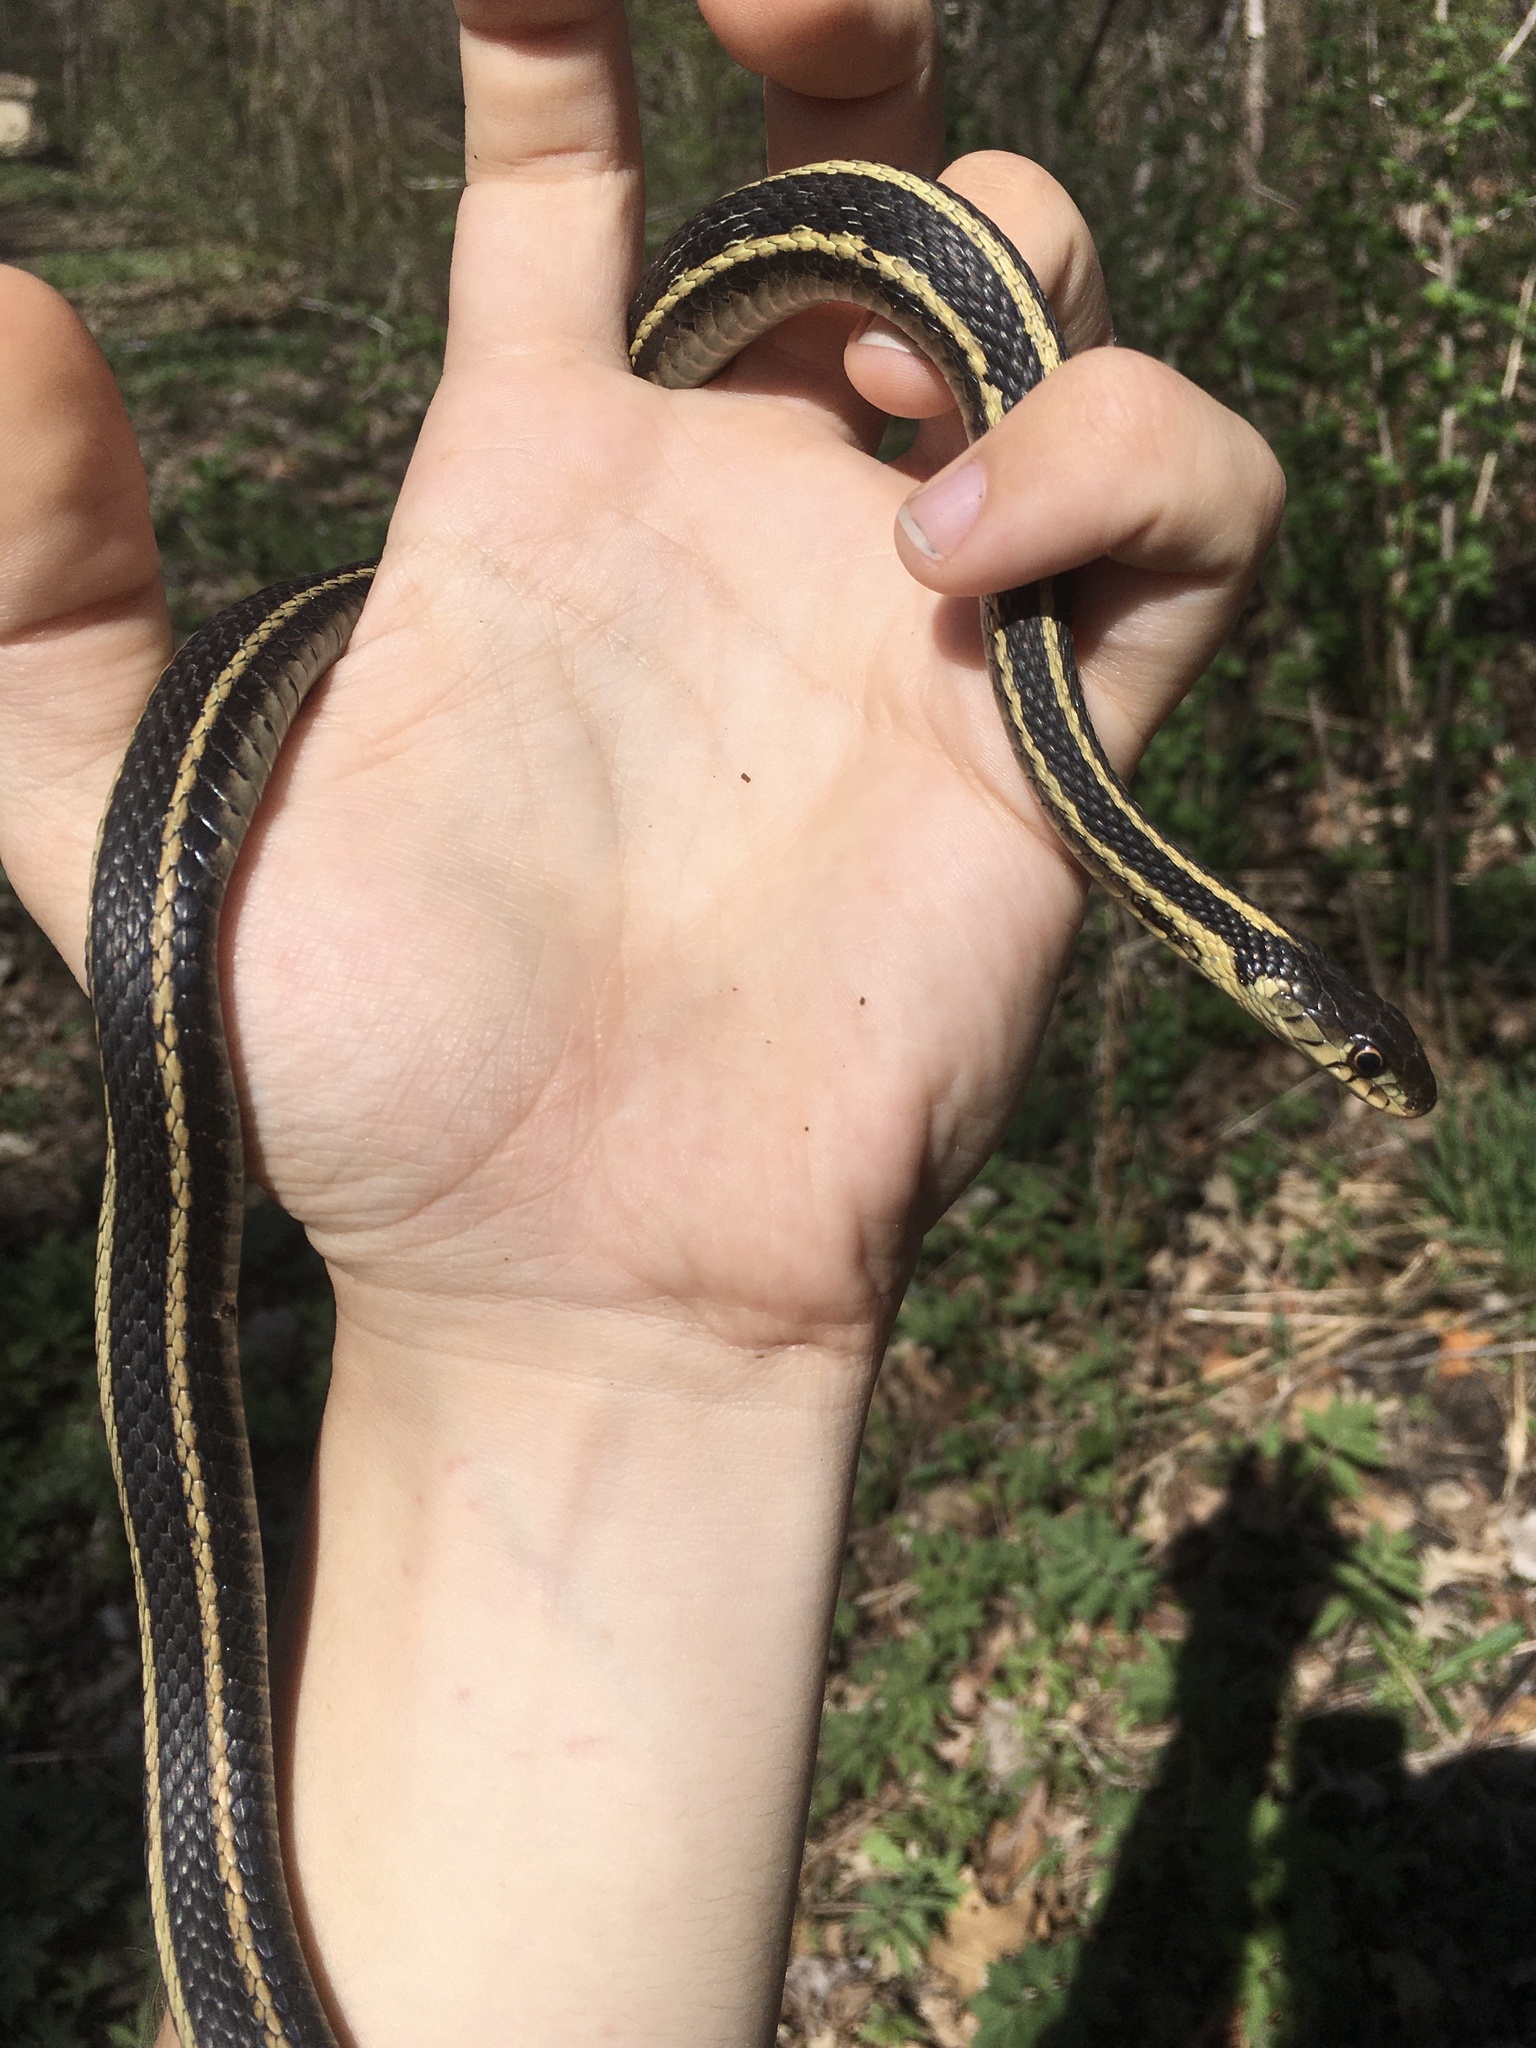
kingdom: Animalia
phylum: Chordata
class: Squamata
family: Colubridae
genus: Thamnophis
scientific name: Thamnophis sirtalis
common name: Common garter snake
